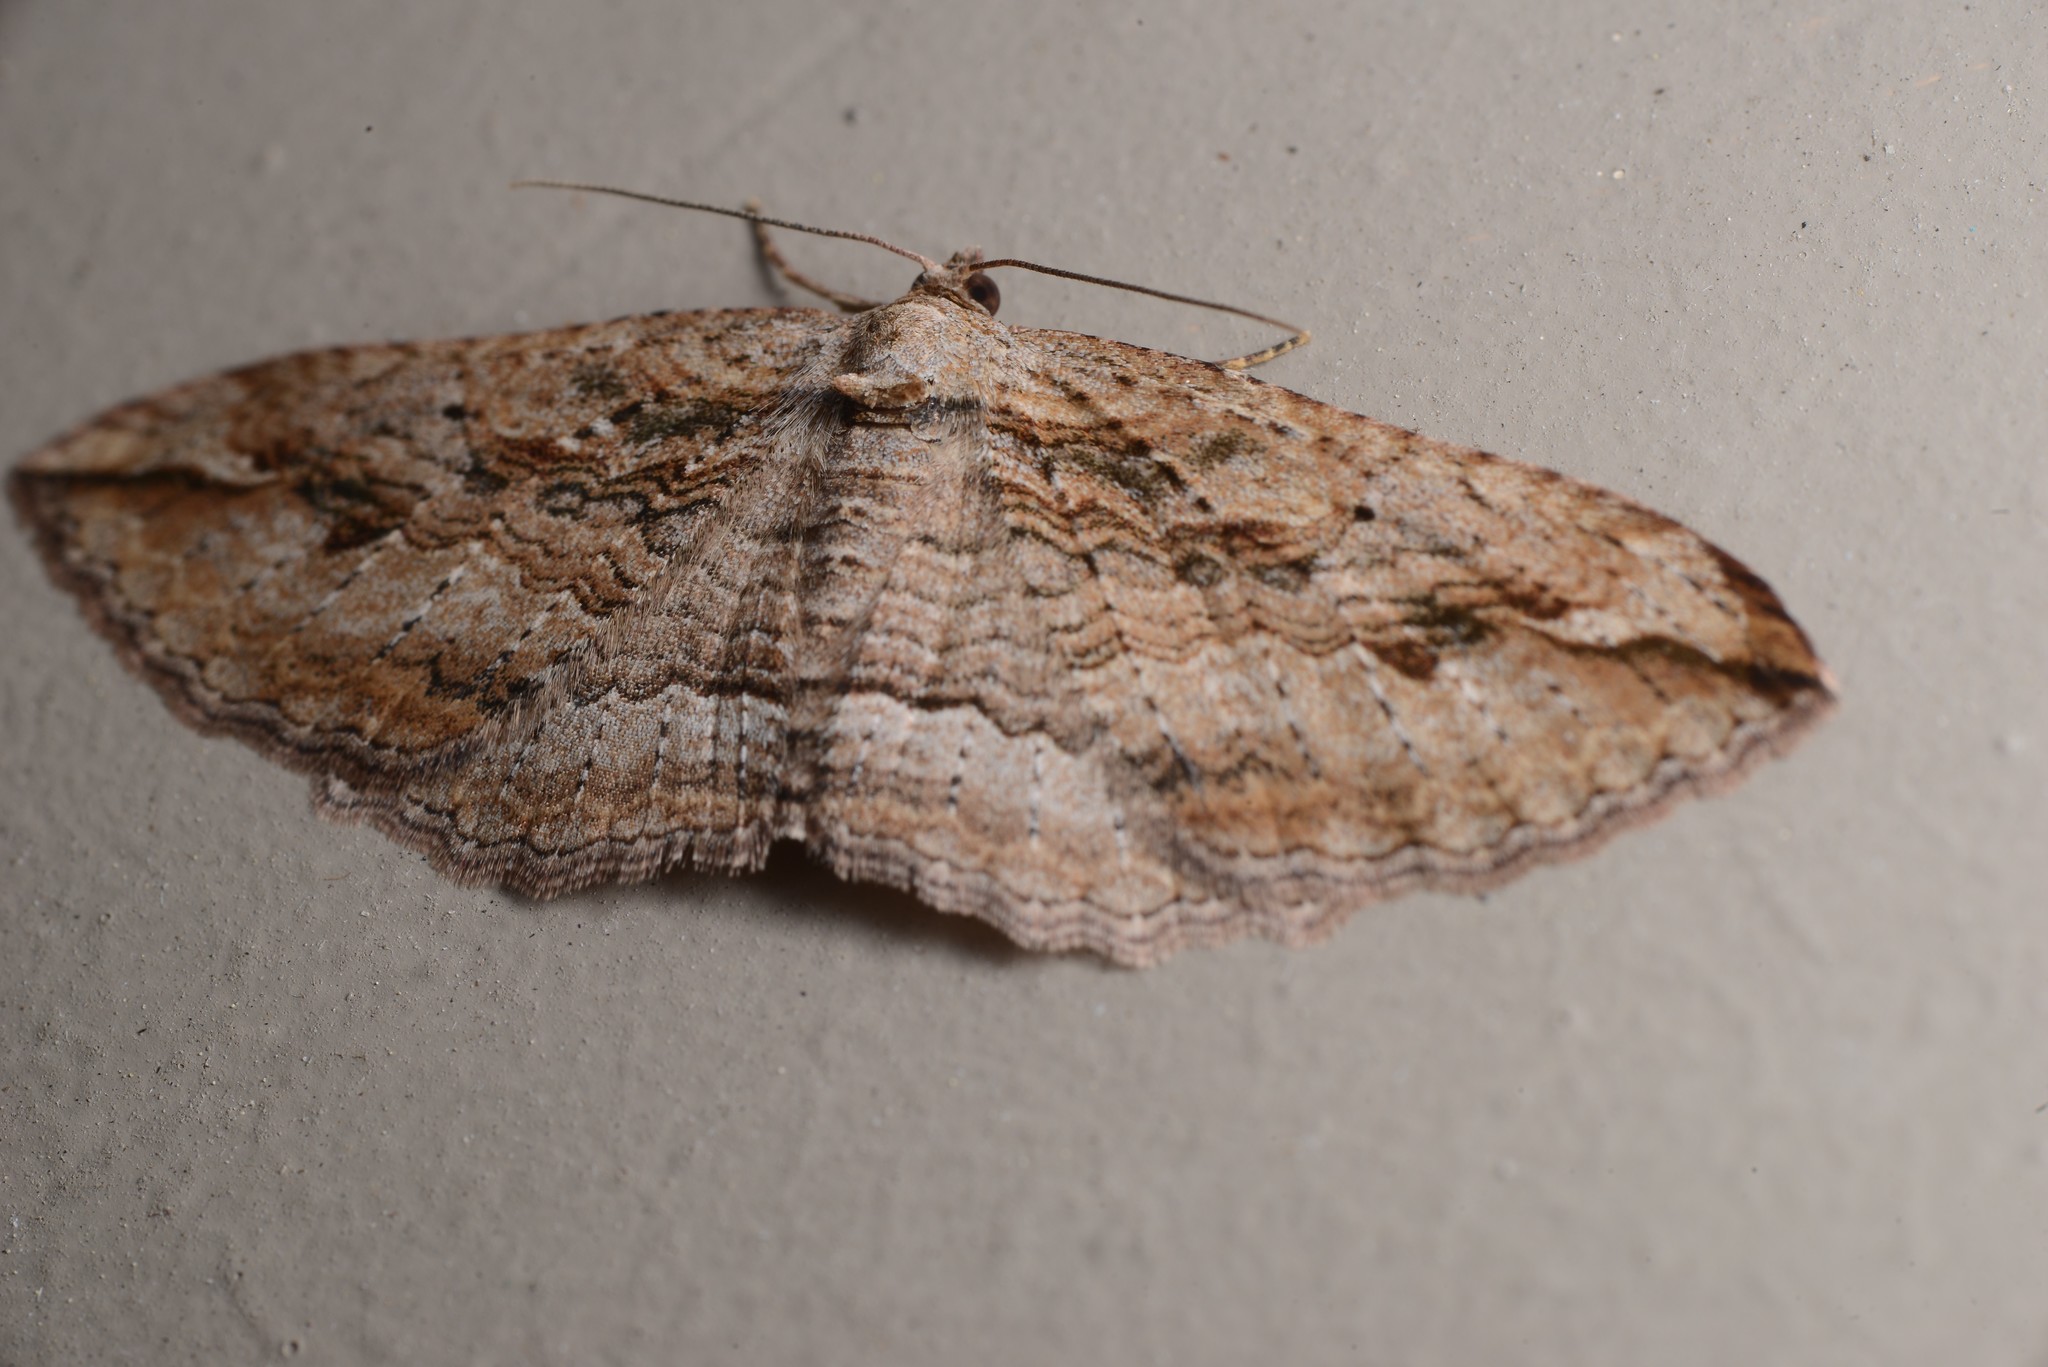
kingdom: Animalia
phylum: Arthropoda
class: Insecta
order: Lepidoptera
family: Geometridae
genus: Austrocidaria
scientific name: Austrocidaria gobiata
